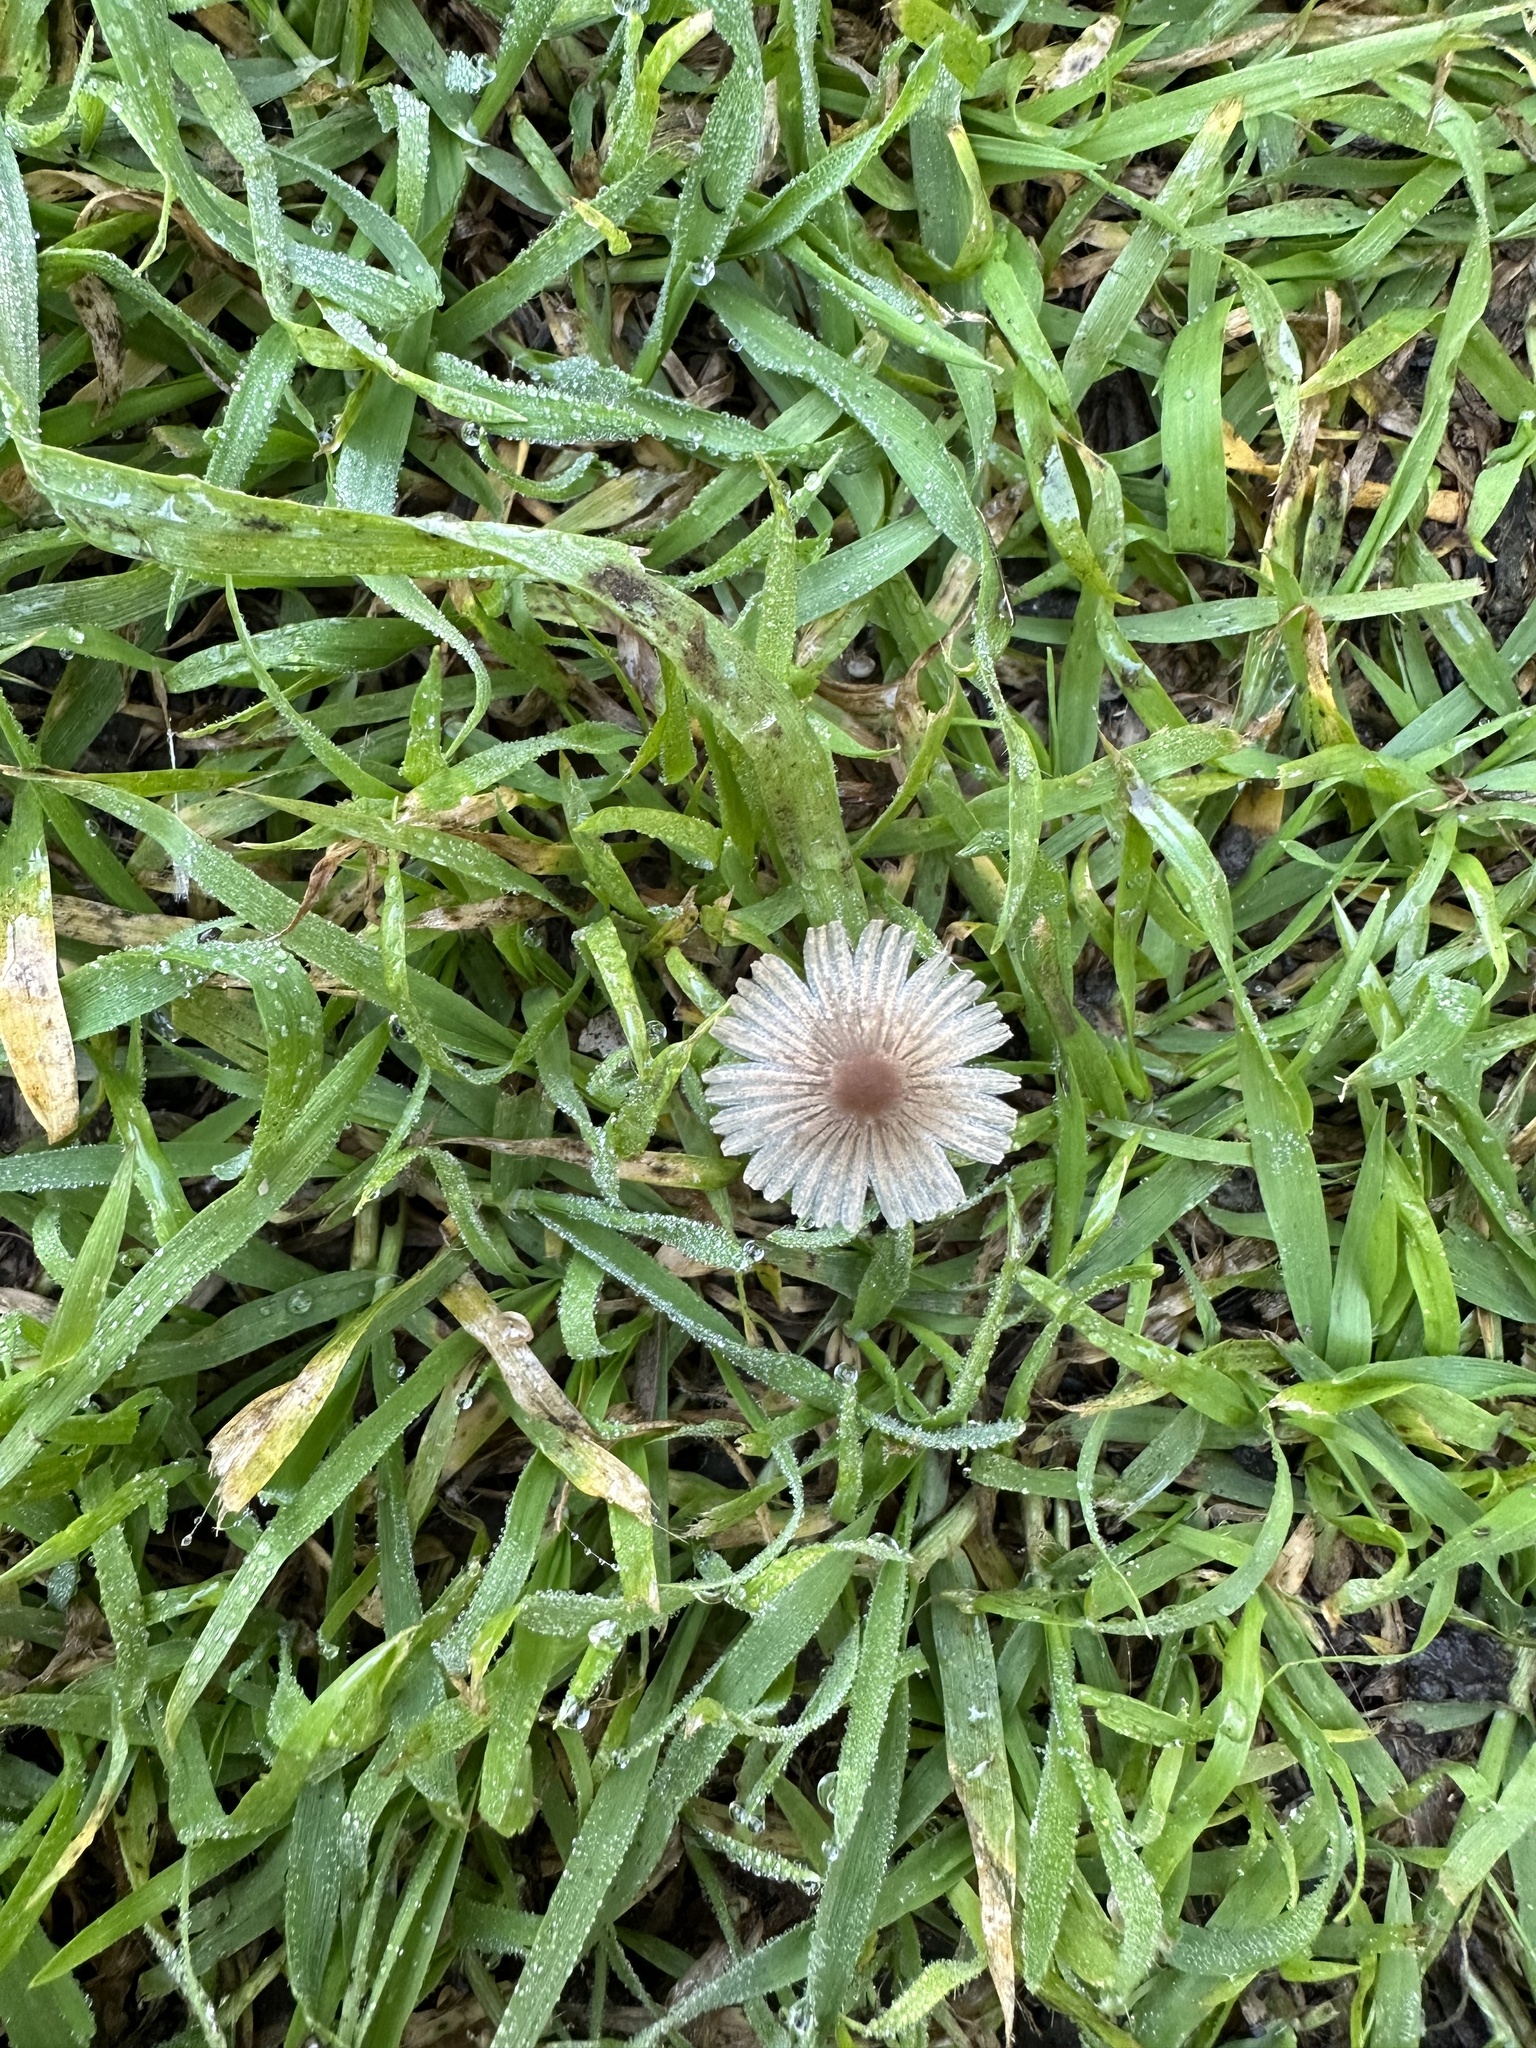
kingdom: Fungi
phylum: Basidiomycota
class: Agaricomycetes
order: Agaricales
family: Psathyrellaceae
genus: Parasola
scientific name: Parasola plicatilis
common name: Pleated inkcap
